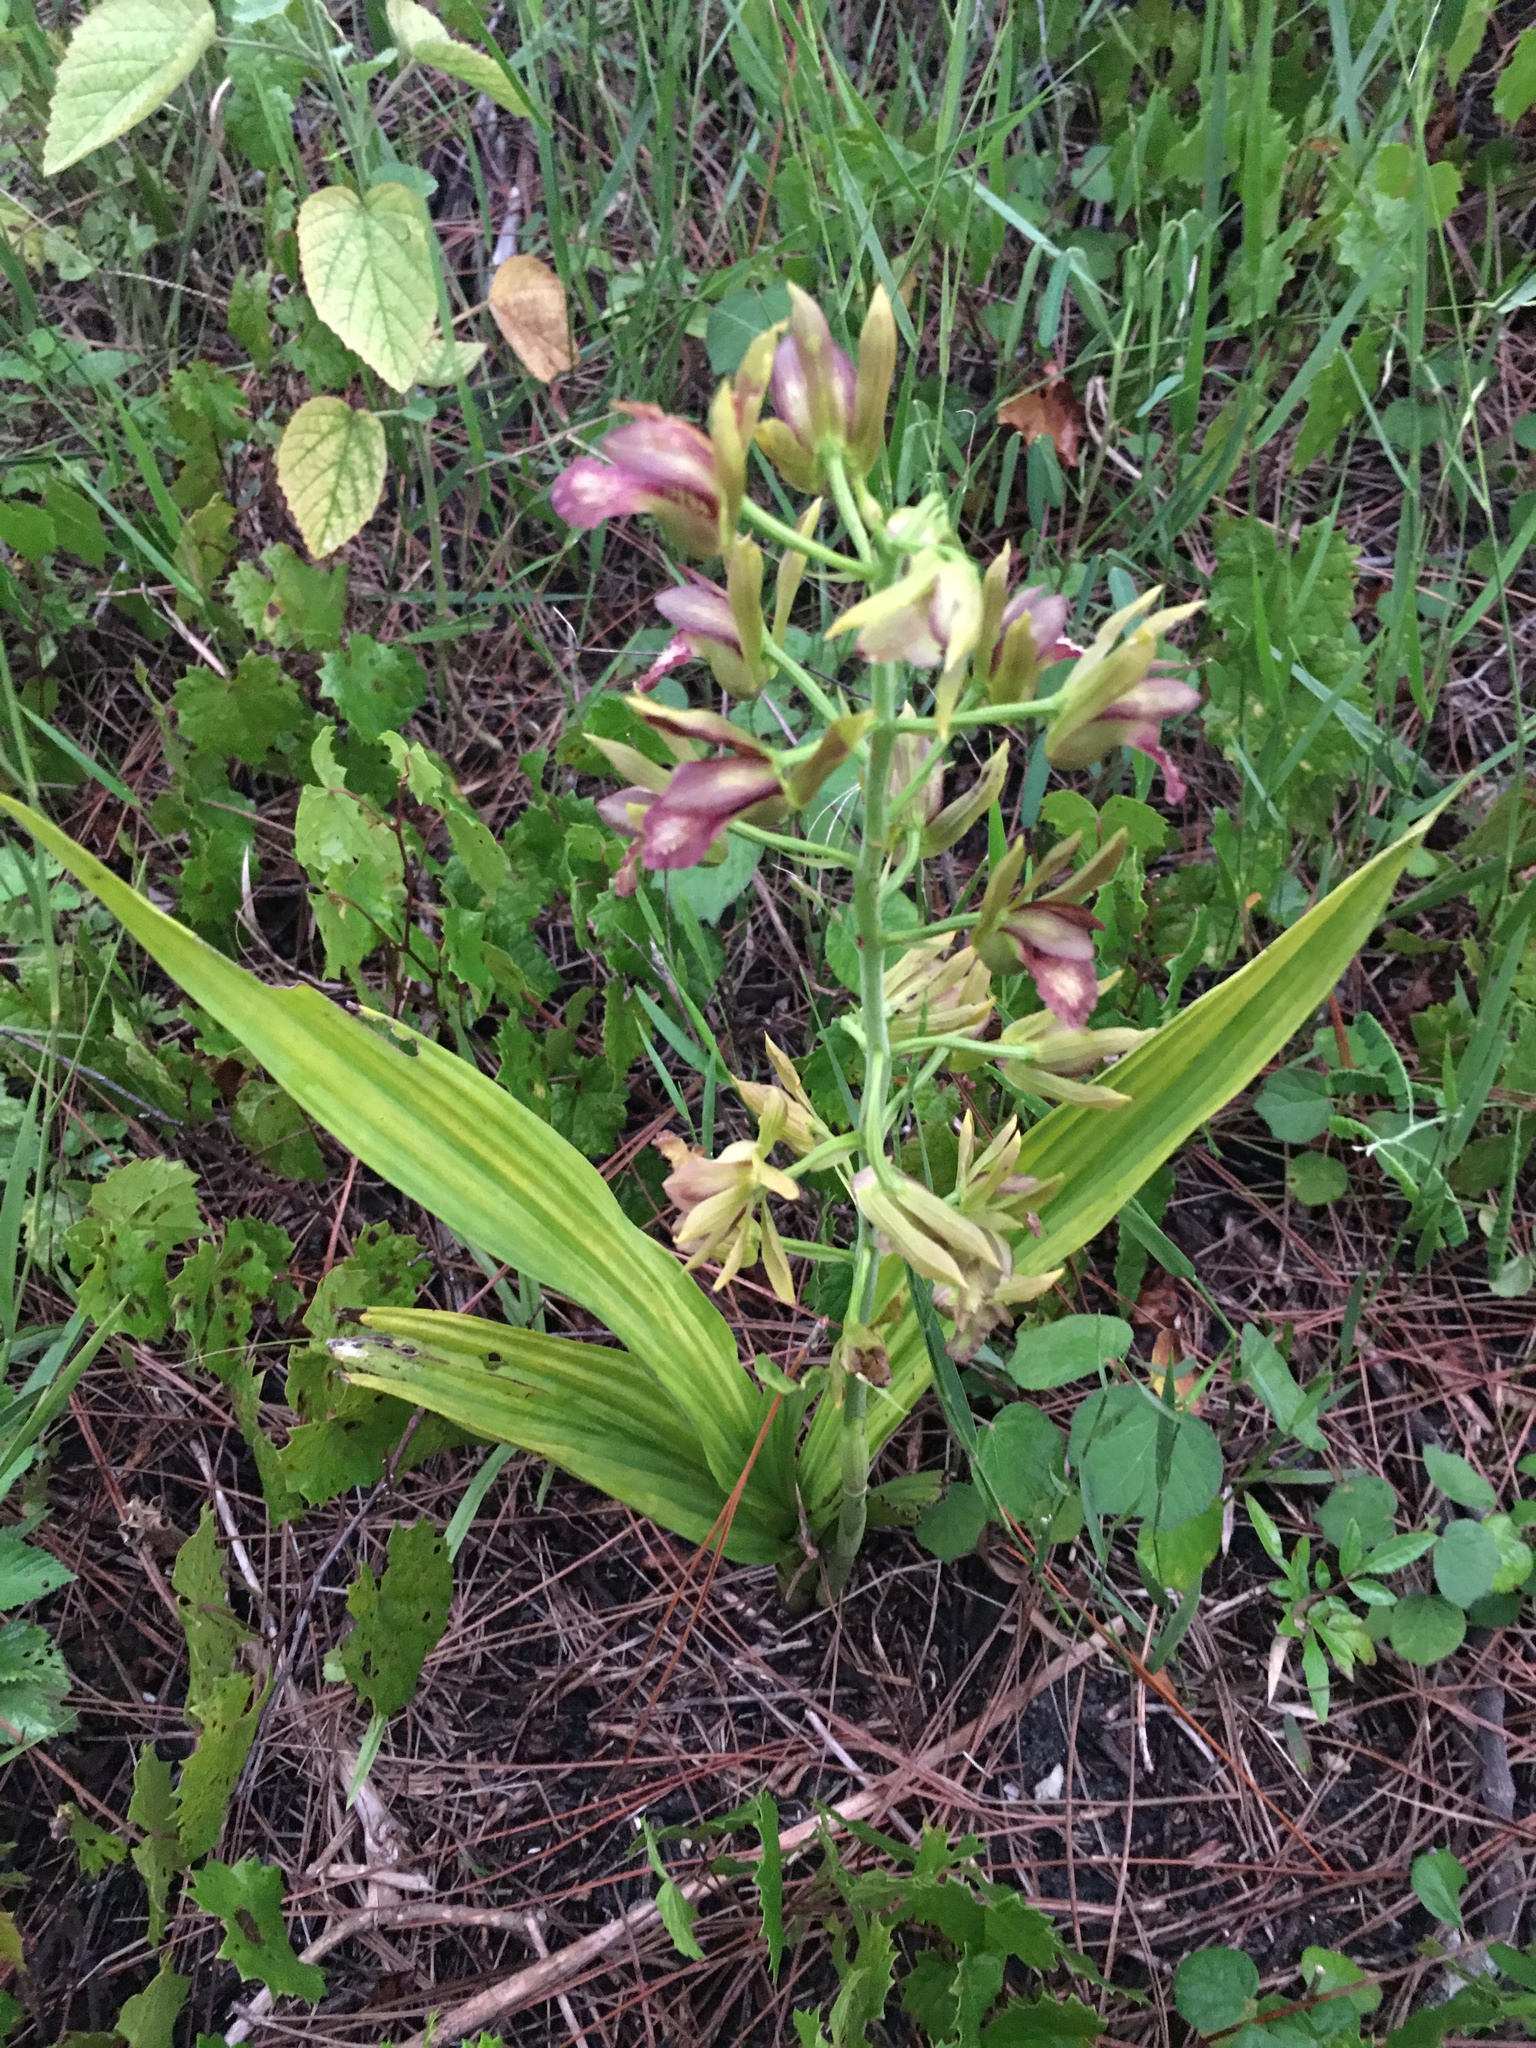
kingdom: Plantae
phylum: Tracheophyta
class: Liliopsida
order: Asparagales
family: Orchidaceae
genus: Eulophia
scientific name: Eulophia alta
